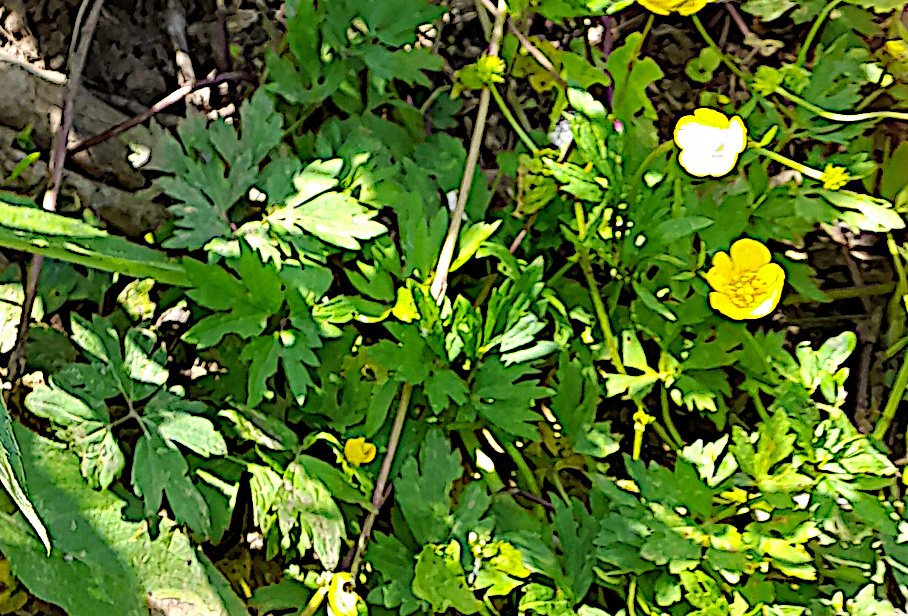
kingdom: Plantae
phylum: Tracheophyta
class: Magnoliopsida
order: Ranunculales
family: Ranunculaceae
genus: Ranunculus
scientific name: Ranunculus repens
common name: Creeping buttercup
